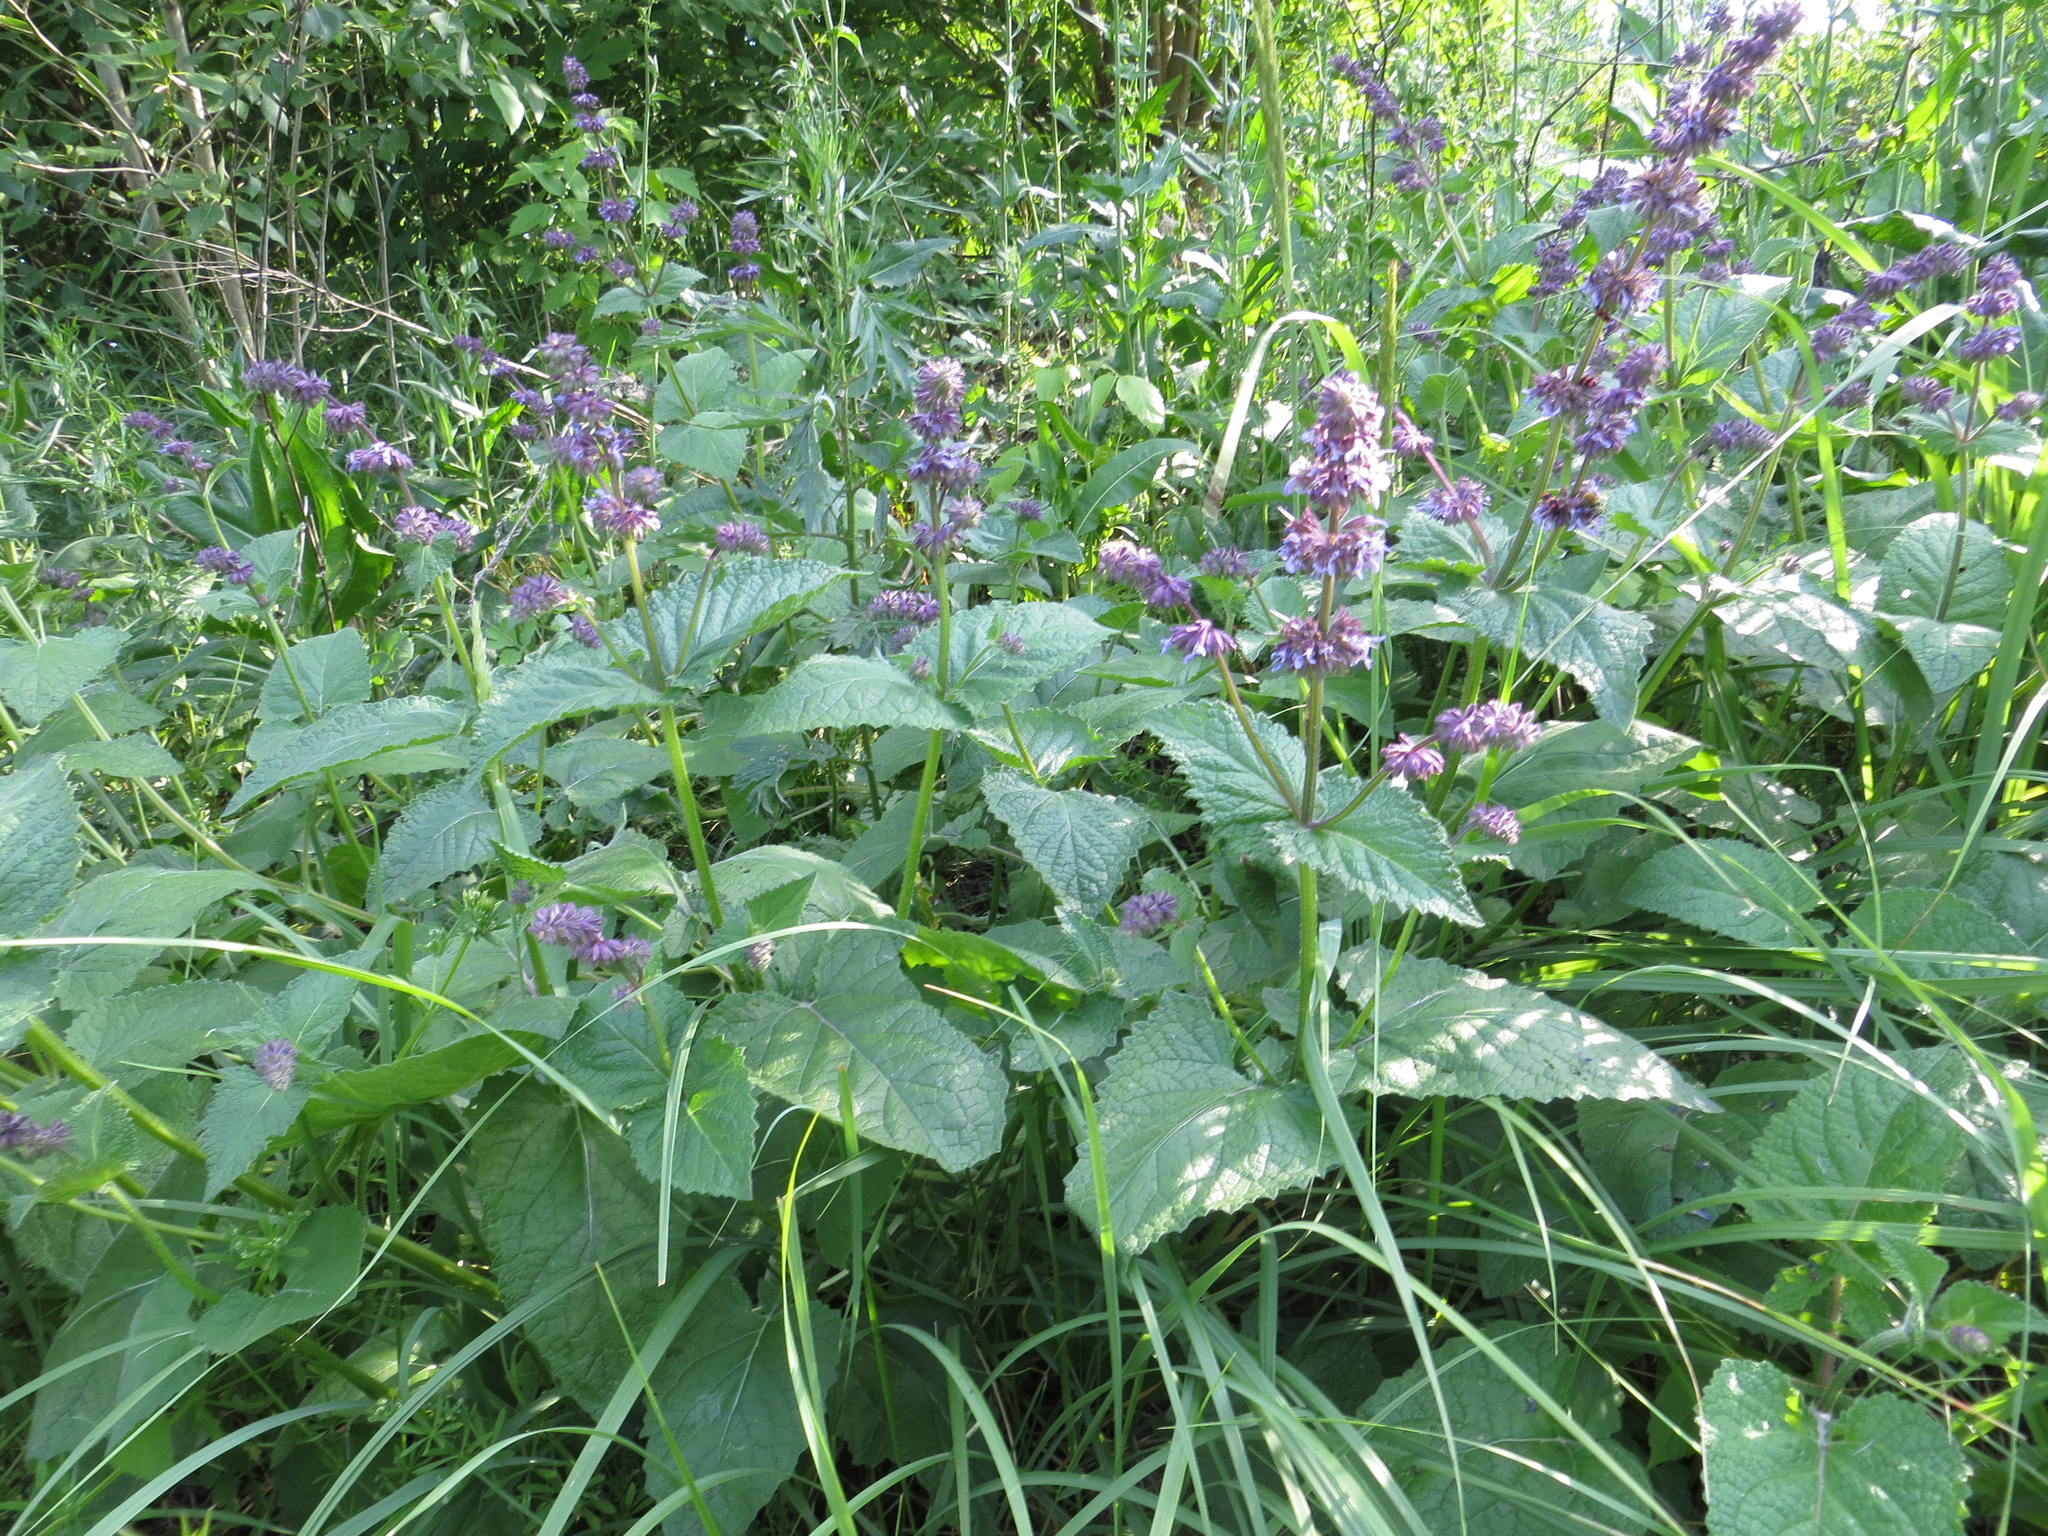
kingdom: Plantae
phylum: Tracheophyta
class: Magnoliopsida
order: Lamiales
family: Lamiaceae
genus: Salvia
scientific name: Salvia verticillata
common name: Whorled clary
